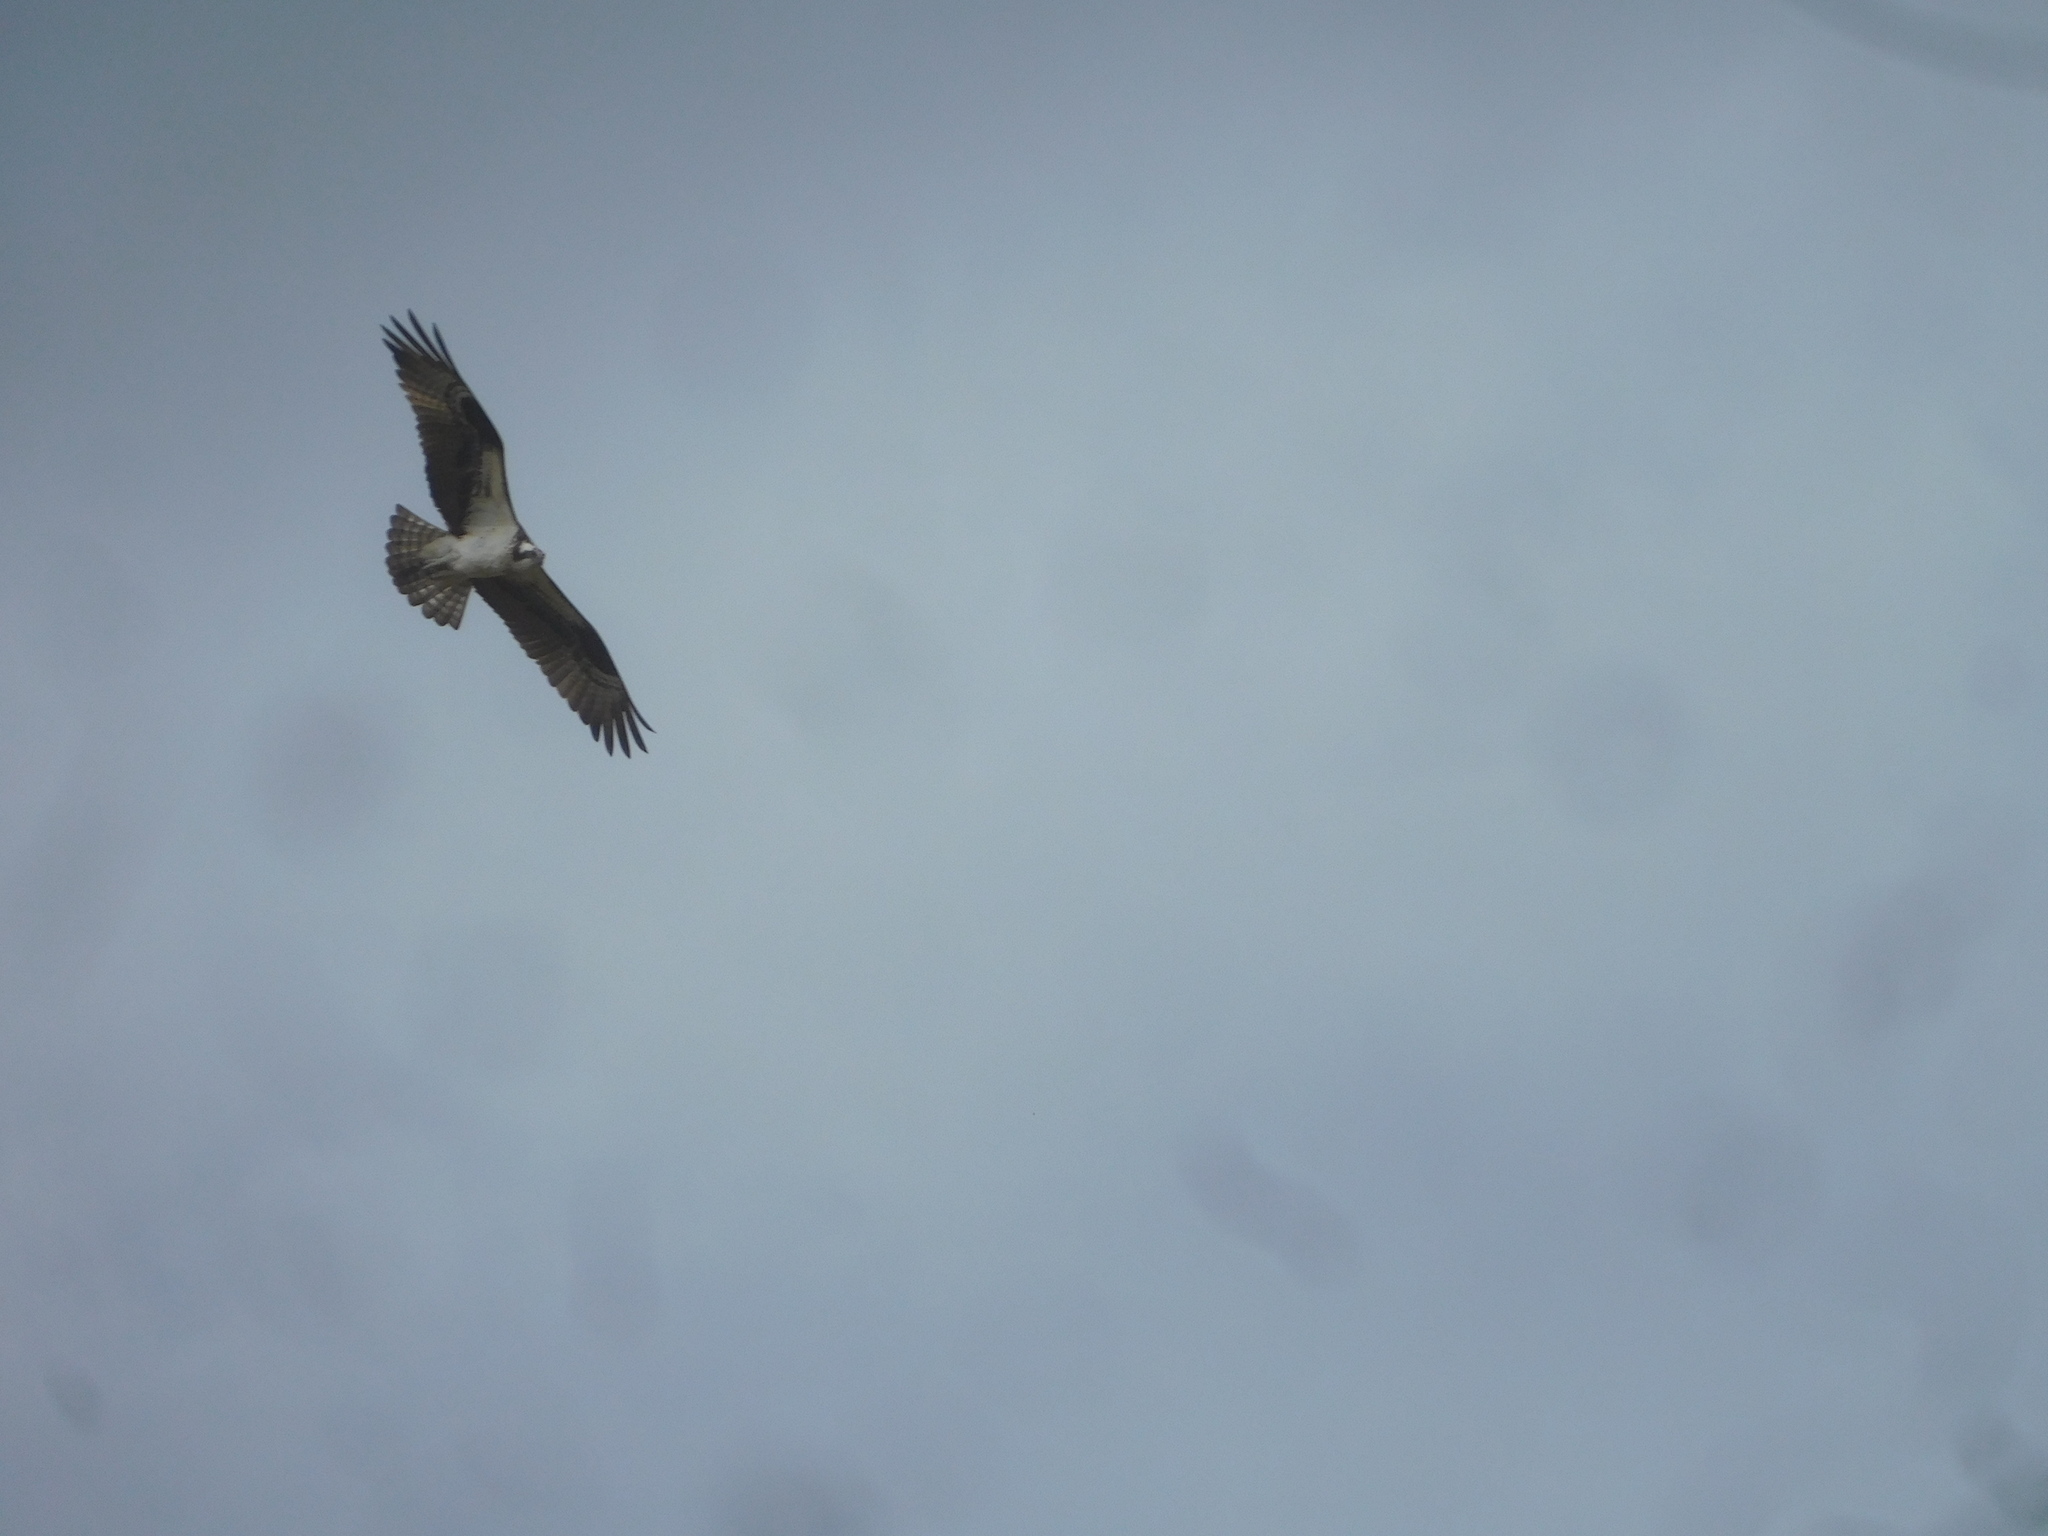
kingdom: Animalia
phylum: Chordata
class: Aves
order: Accipitriformes
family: Pandionidae
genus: Pandion
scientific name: Pandion haliaetus
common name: Osprey
